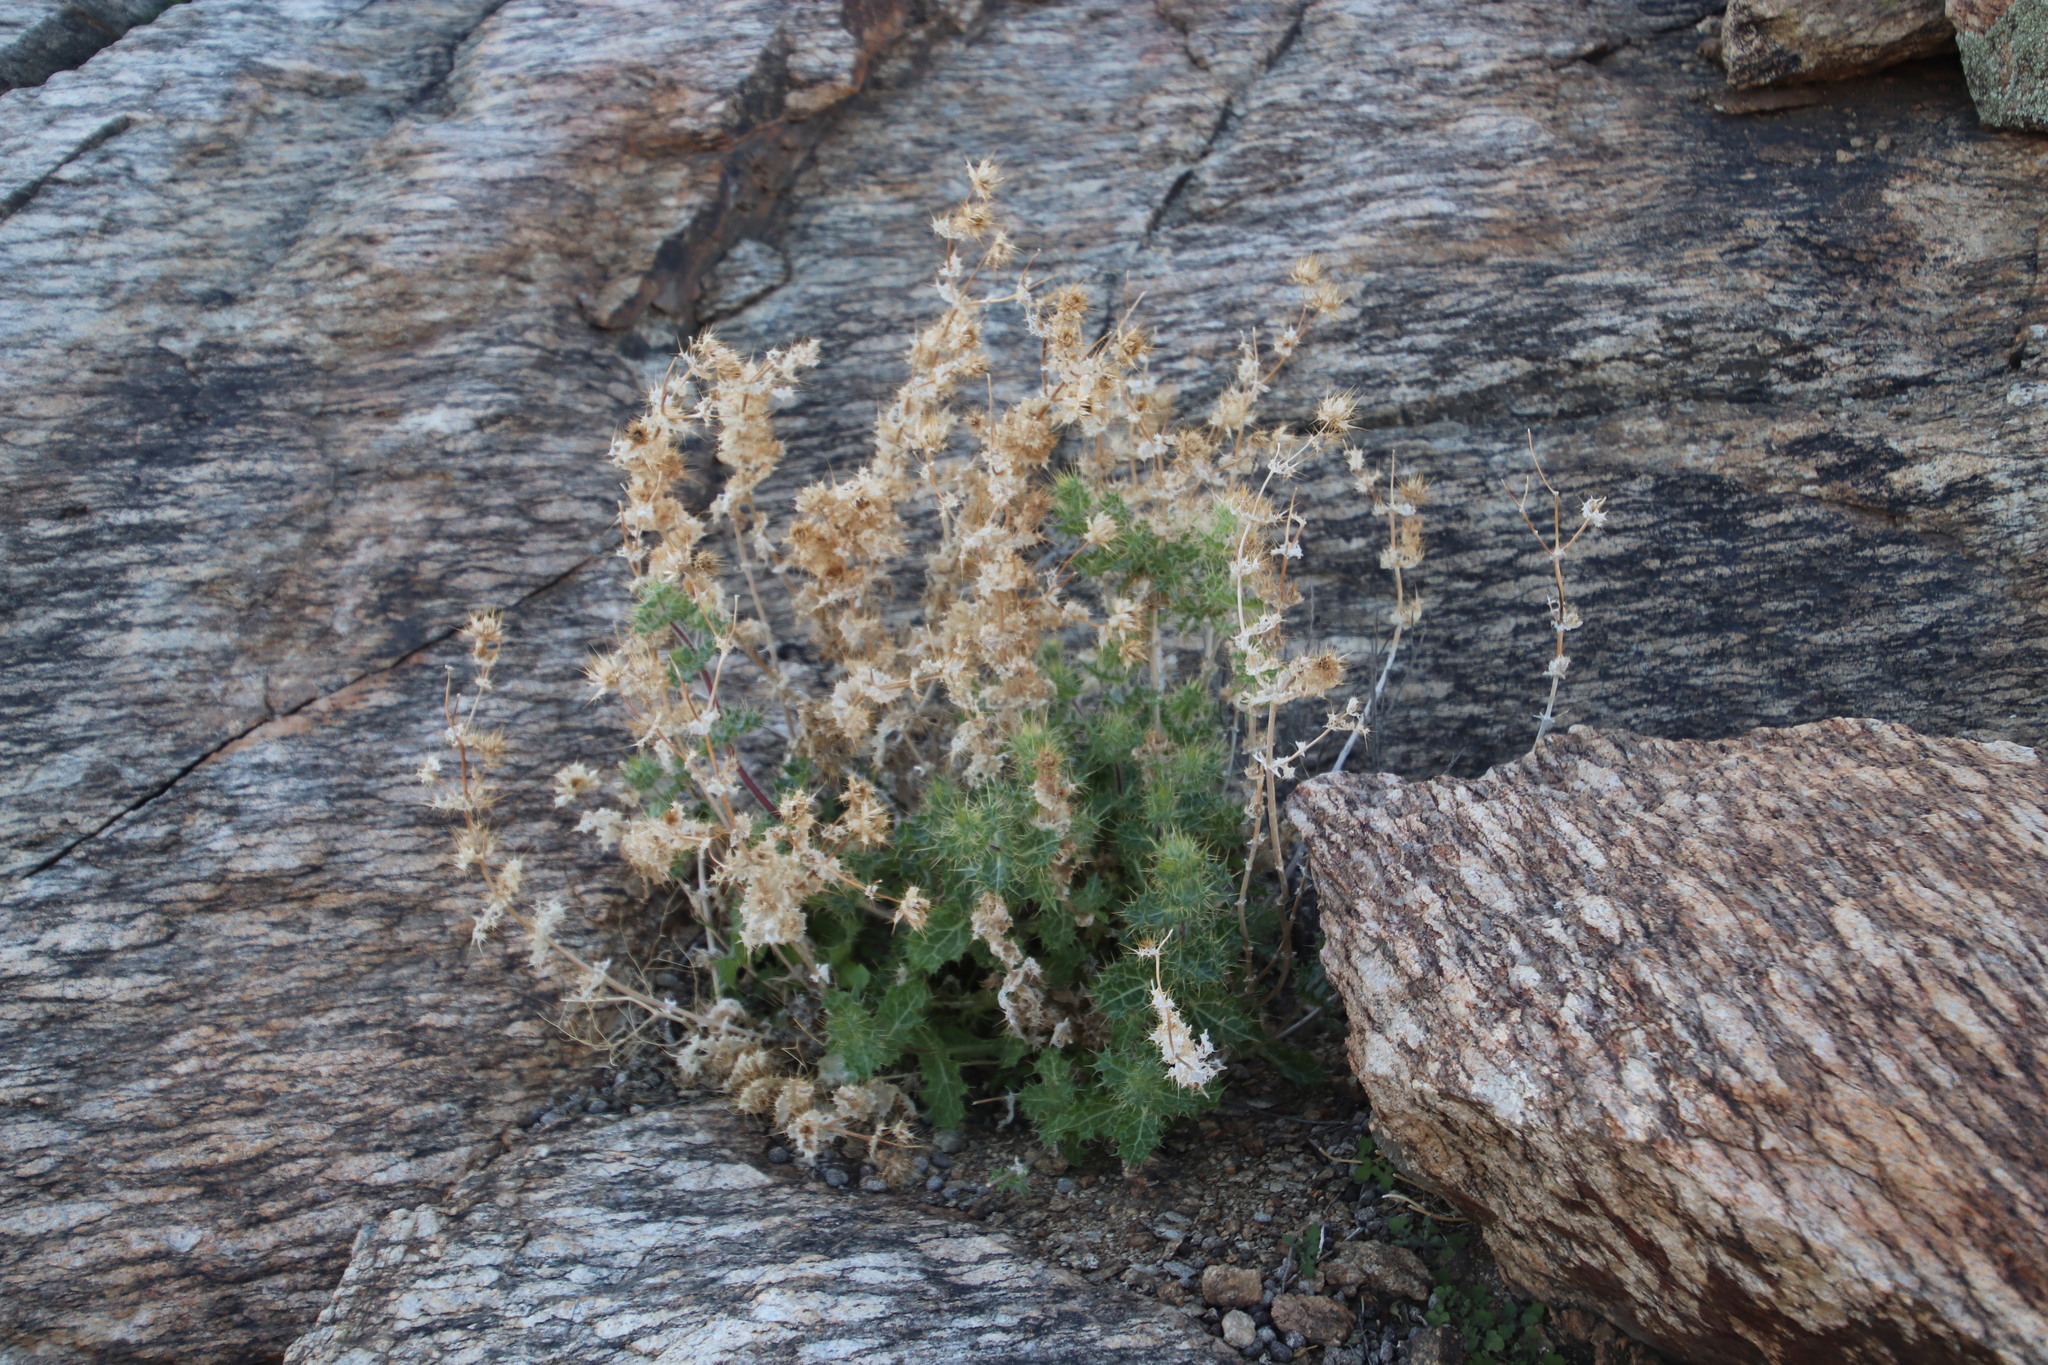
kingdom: Plantae
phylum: Tracheophyta
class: Magnoliopsida
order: Asterales
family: Asteraceae
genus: Berkheya
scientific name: Berkheya spinosissima
